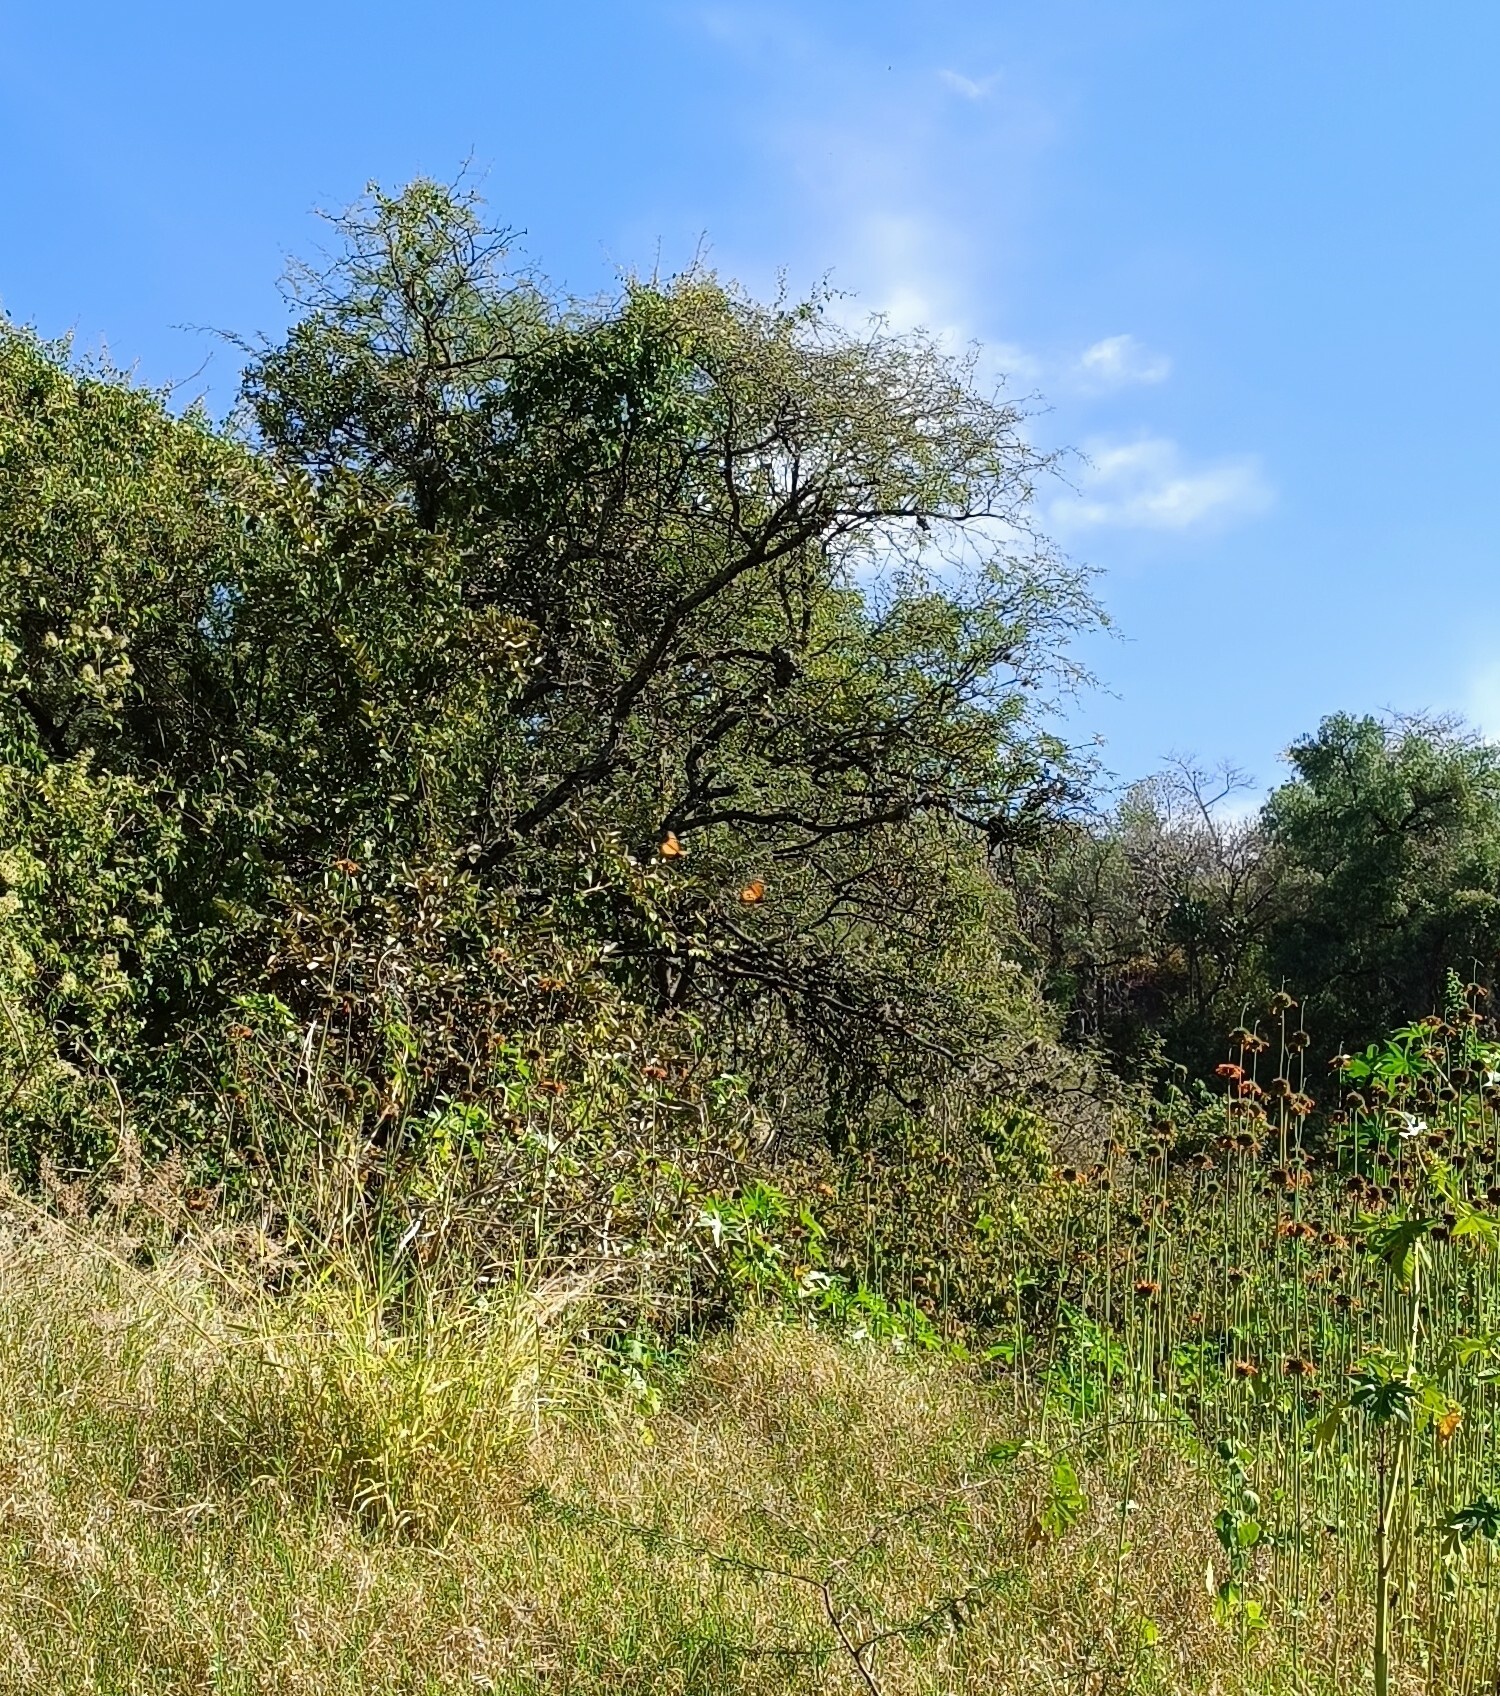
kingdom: Animalia
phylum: Arthropoda
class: Insecta
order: Lepidoptera
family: Nymphalidae
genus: Danaus
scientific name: Danaus plexippus
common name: Monarch
